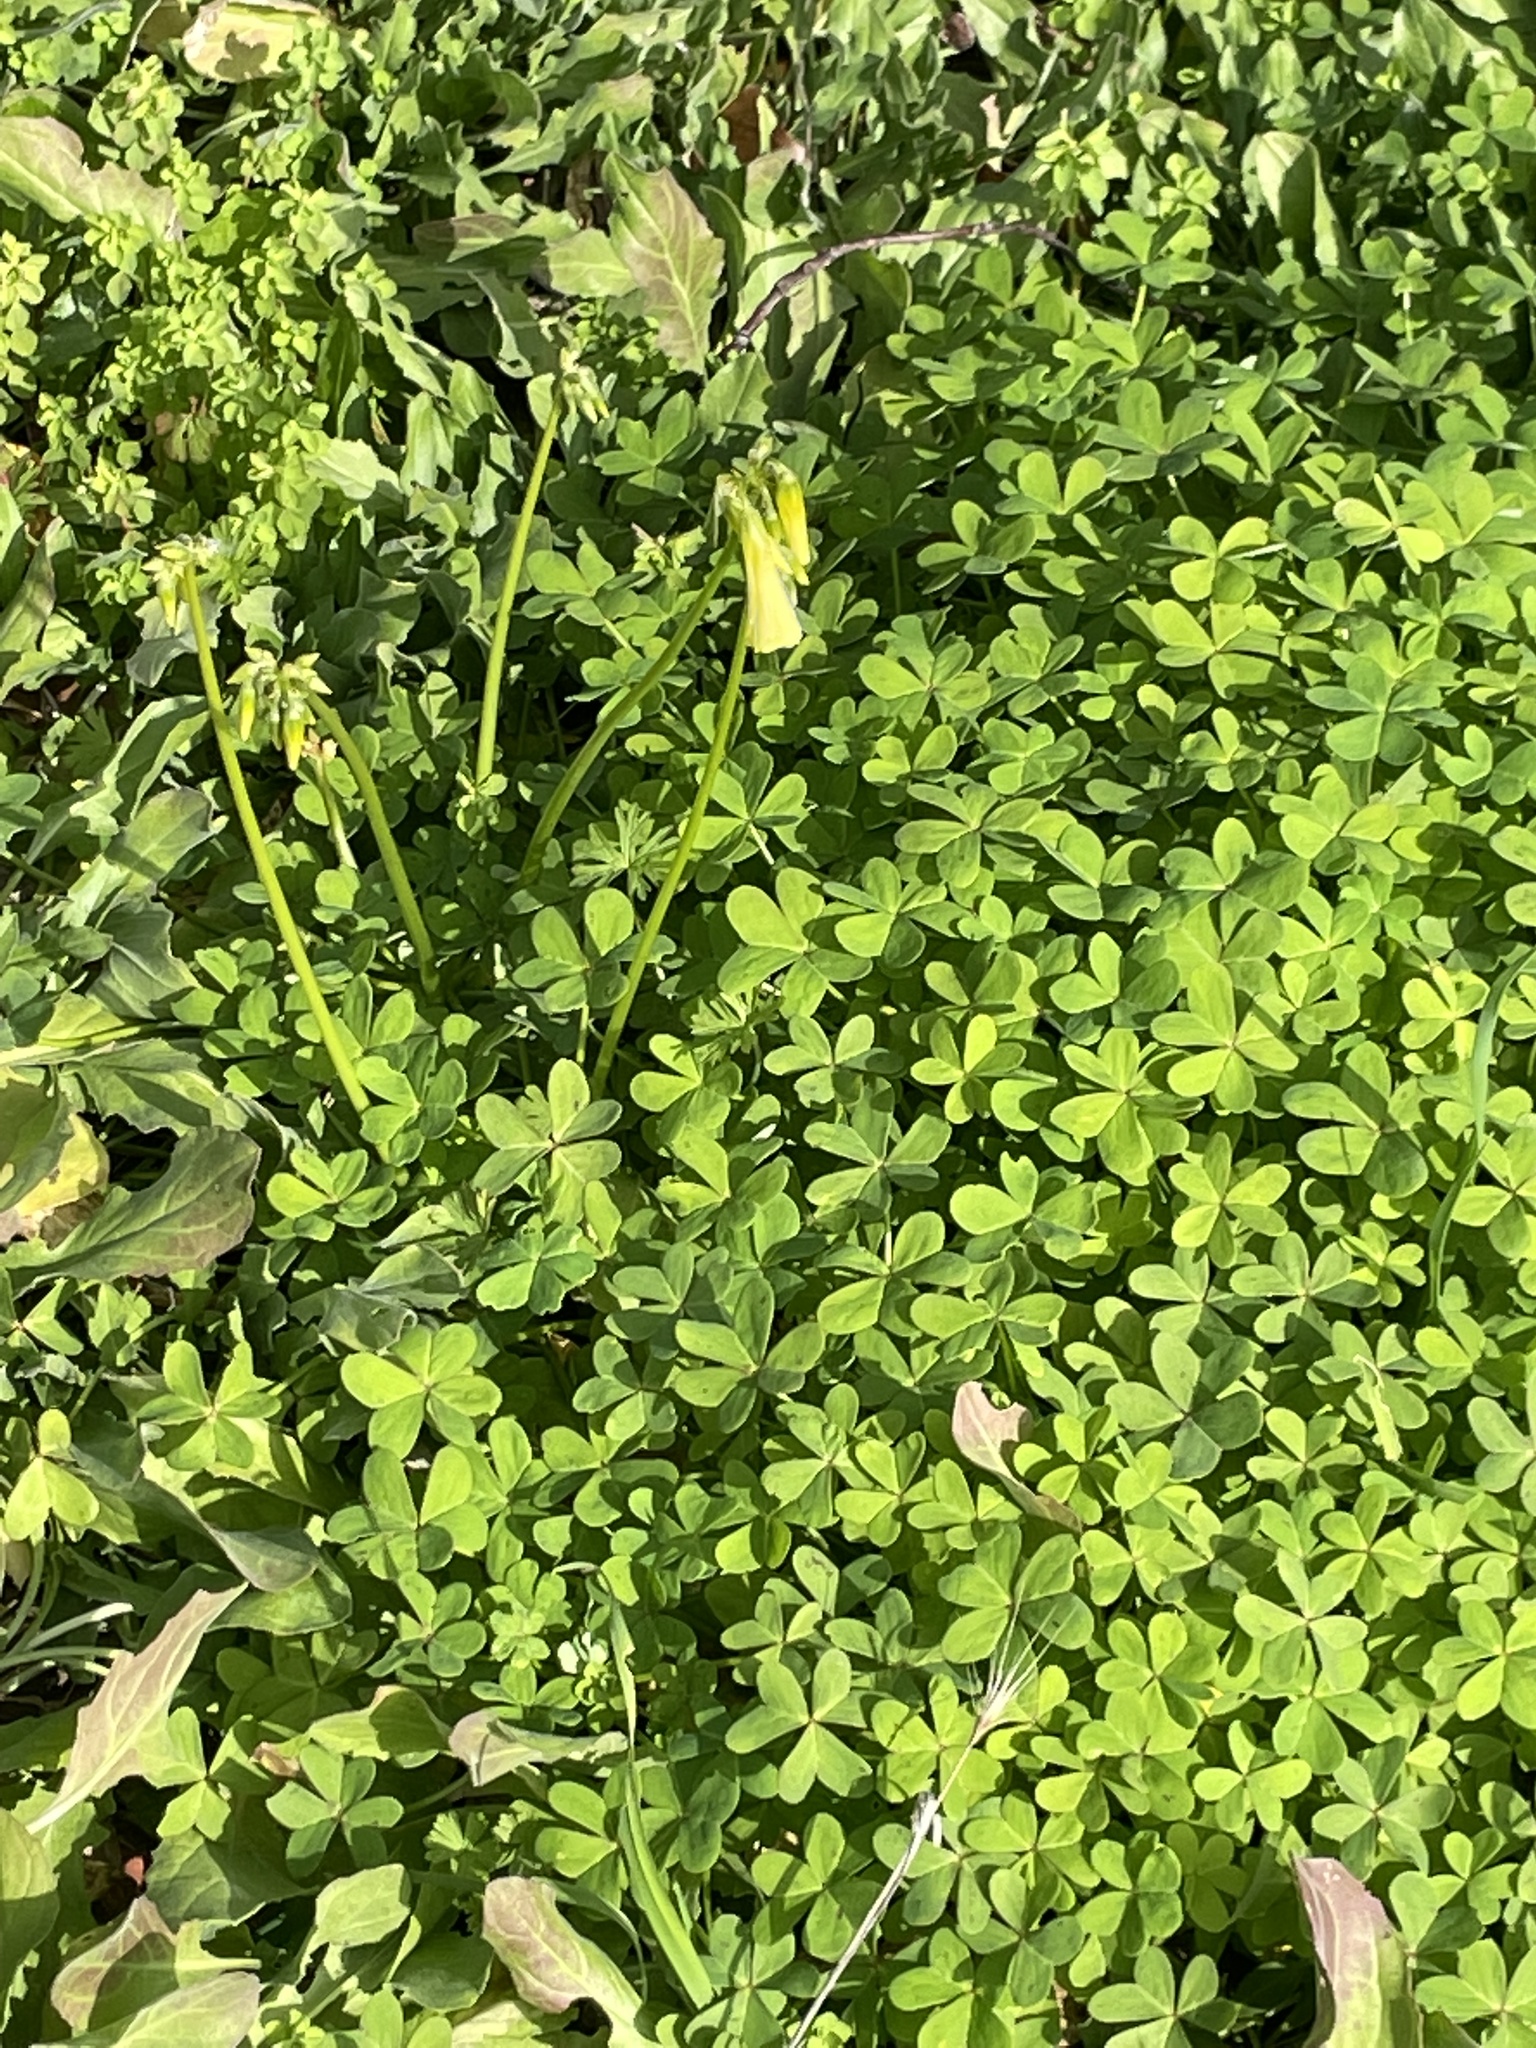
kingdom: Plantae
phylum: Tracheophyta
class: Magnoliopsida
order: Oxalidales
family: Oxalidaceae
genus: Oxalis
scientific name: Oxalis pes-caprae
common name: Bermuda-buttercup
